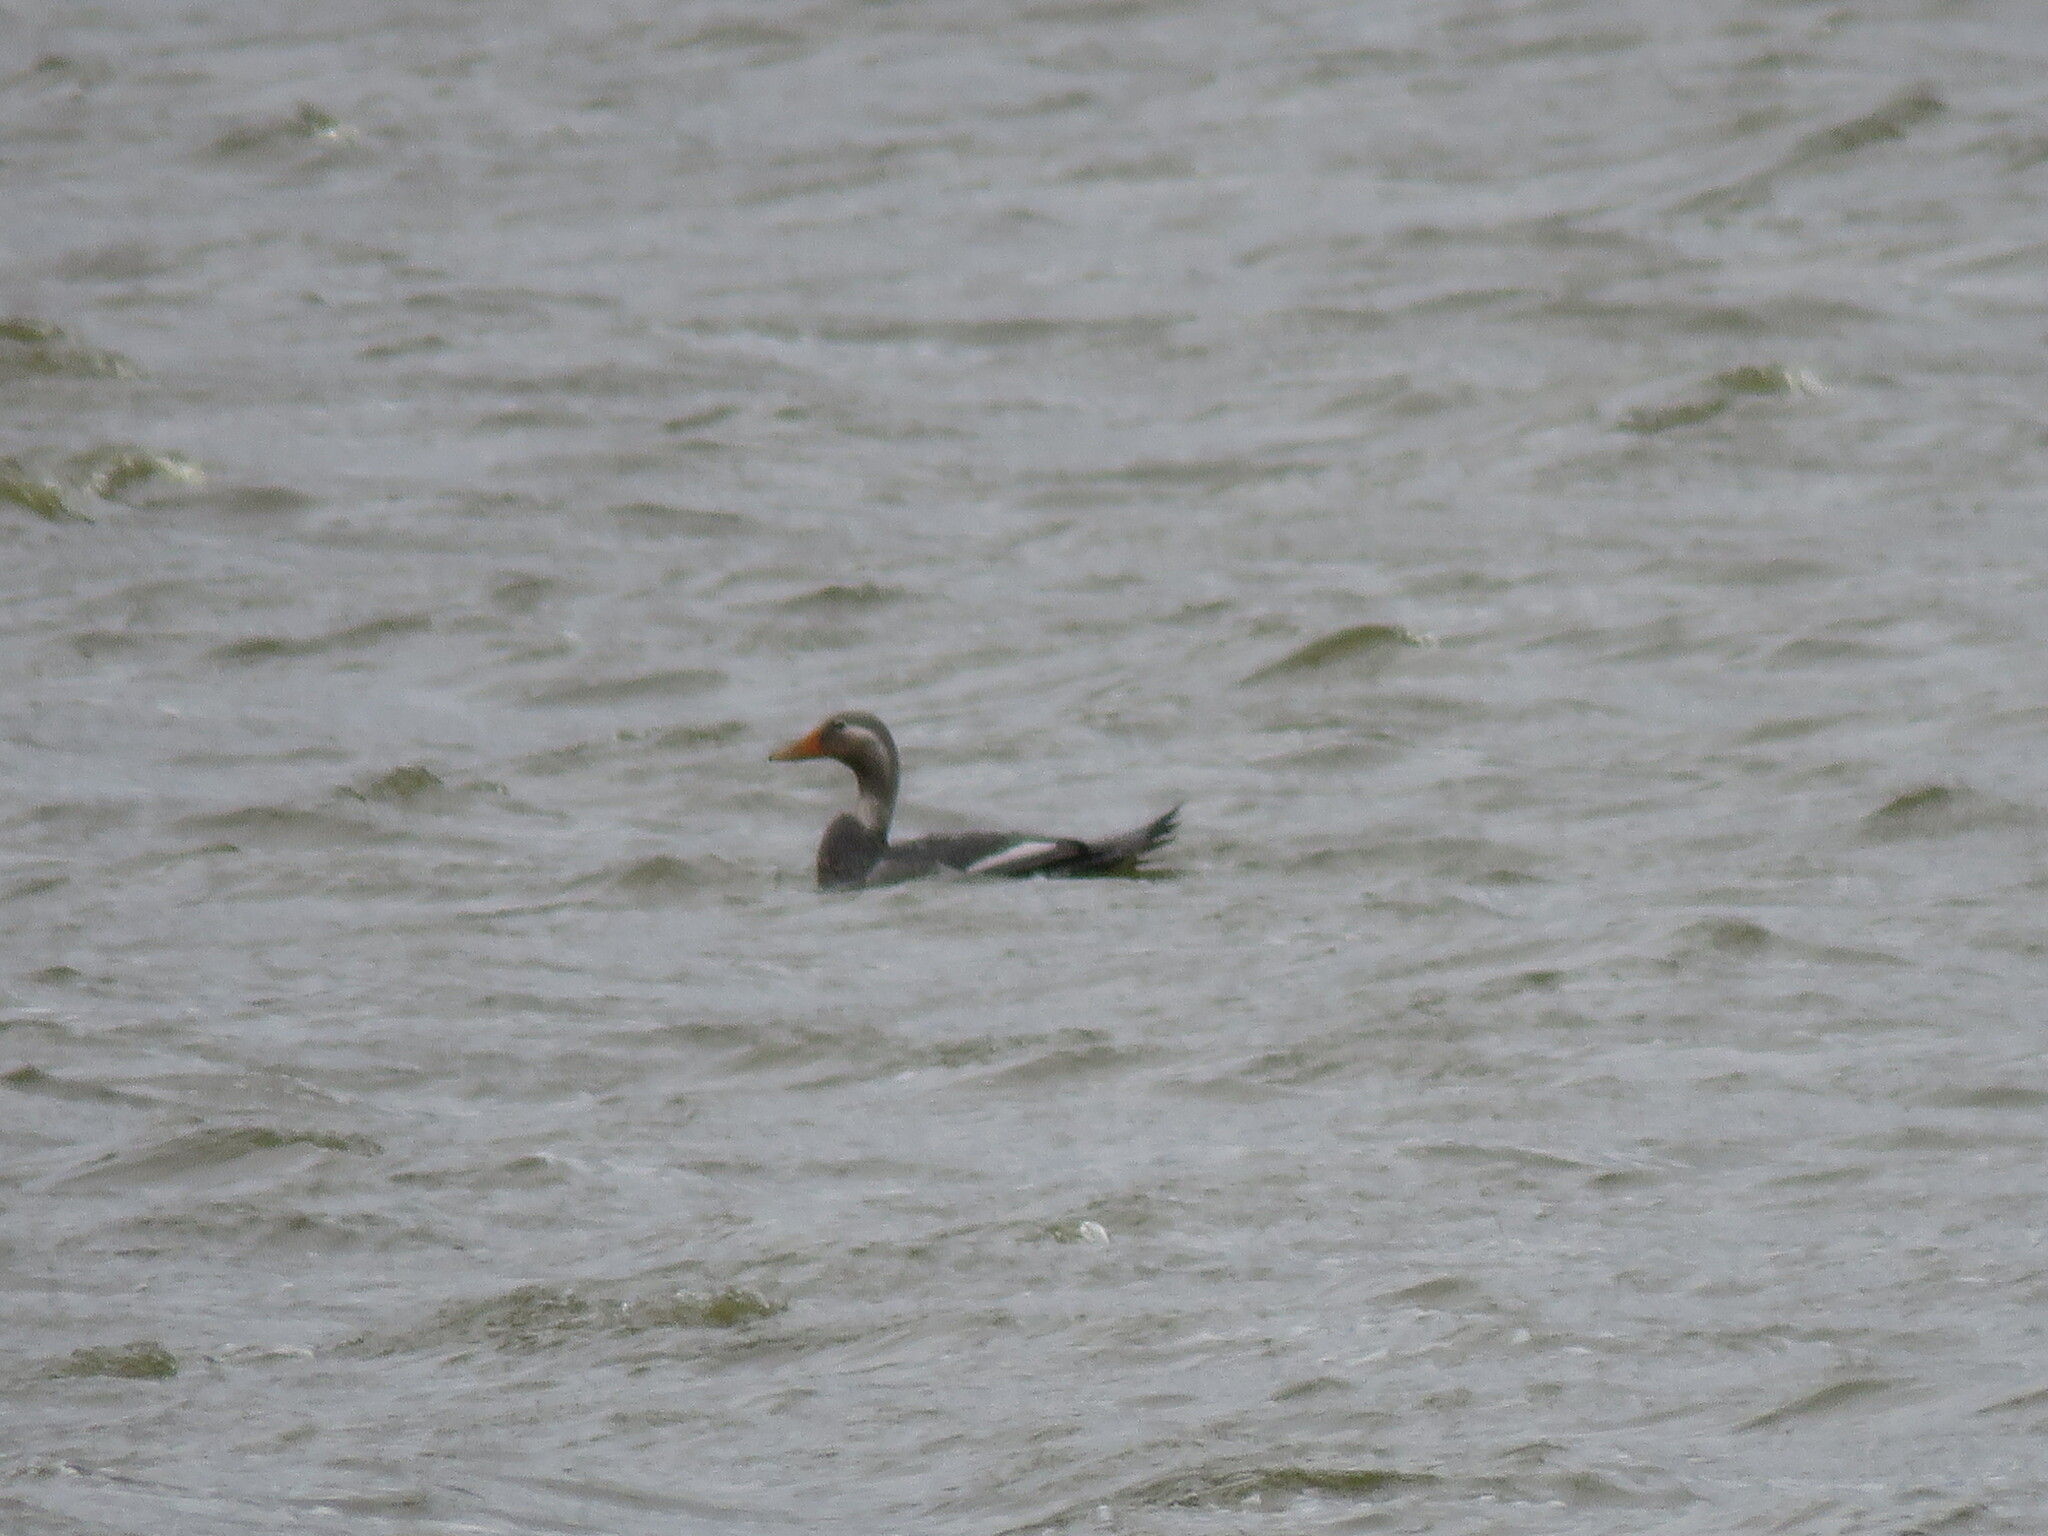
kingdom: Animalia
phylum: Chordata
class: Aves
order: Anseriformes
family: Anatidae
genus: Tachyeres
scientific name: Tachyeres patachonicus
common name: Flying steamer duck
